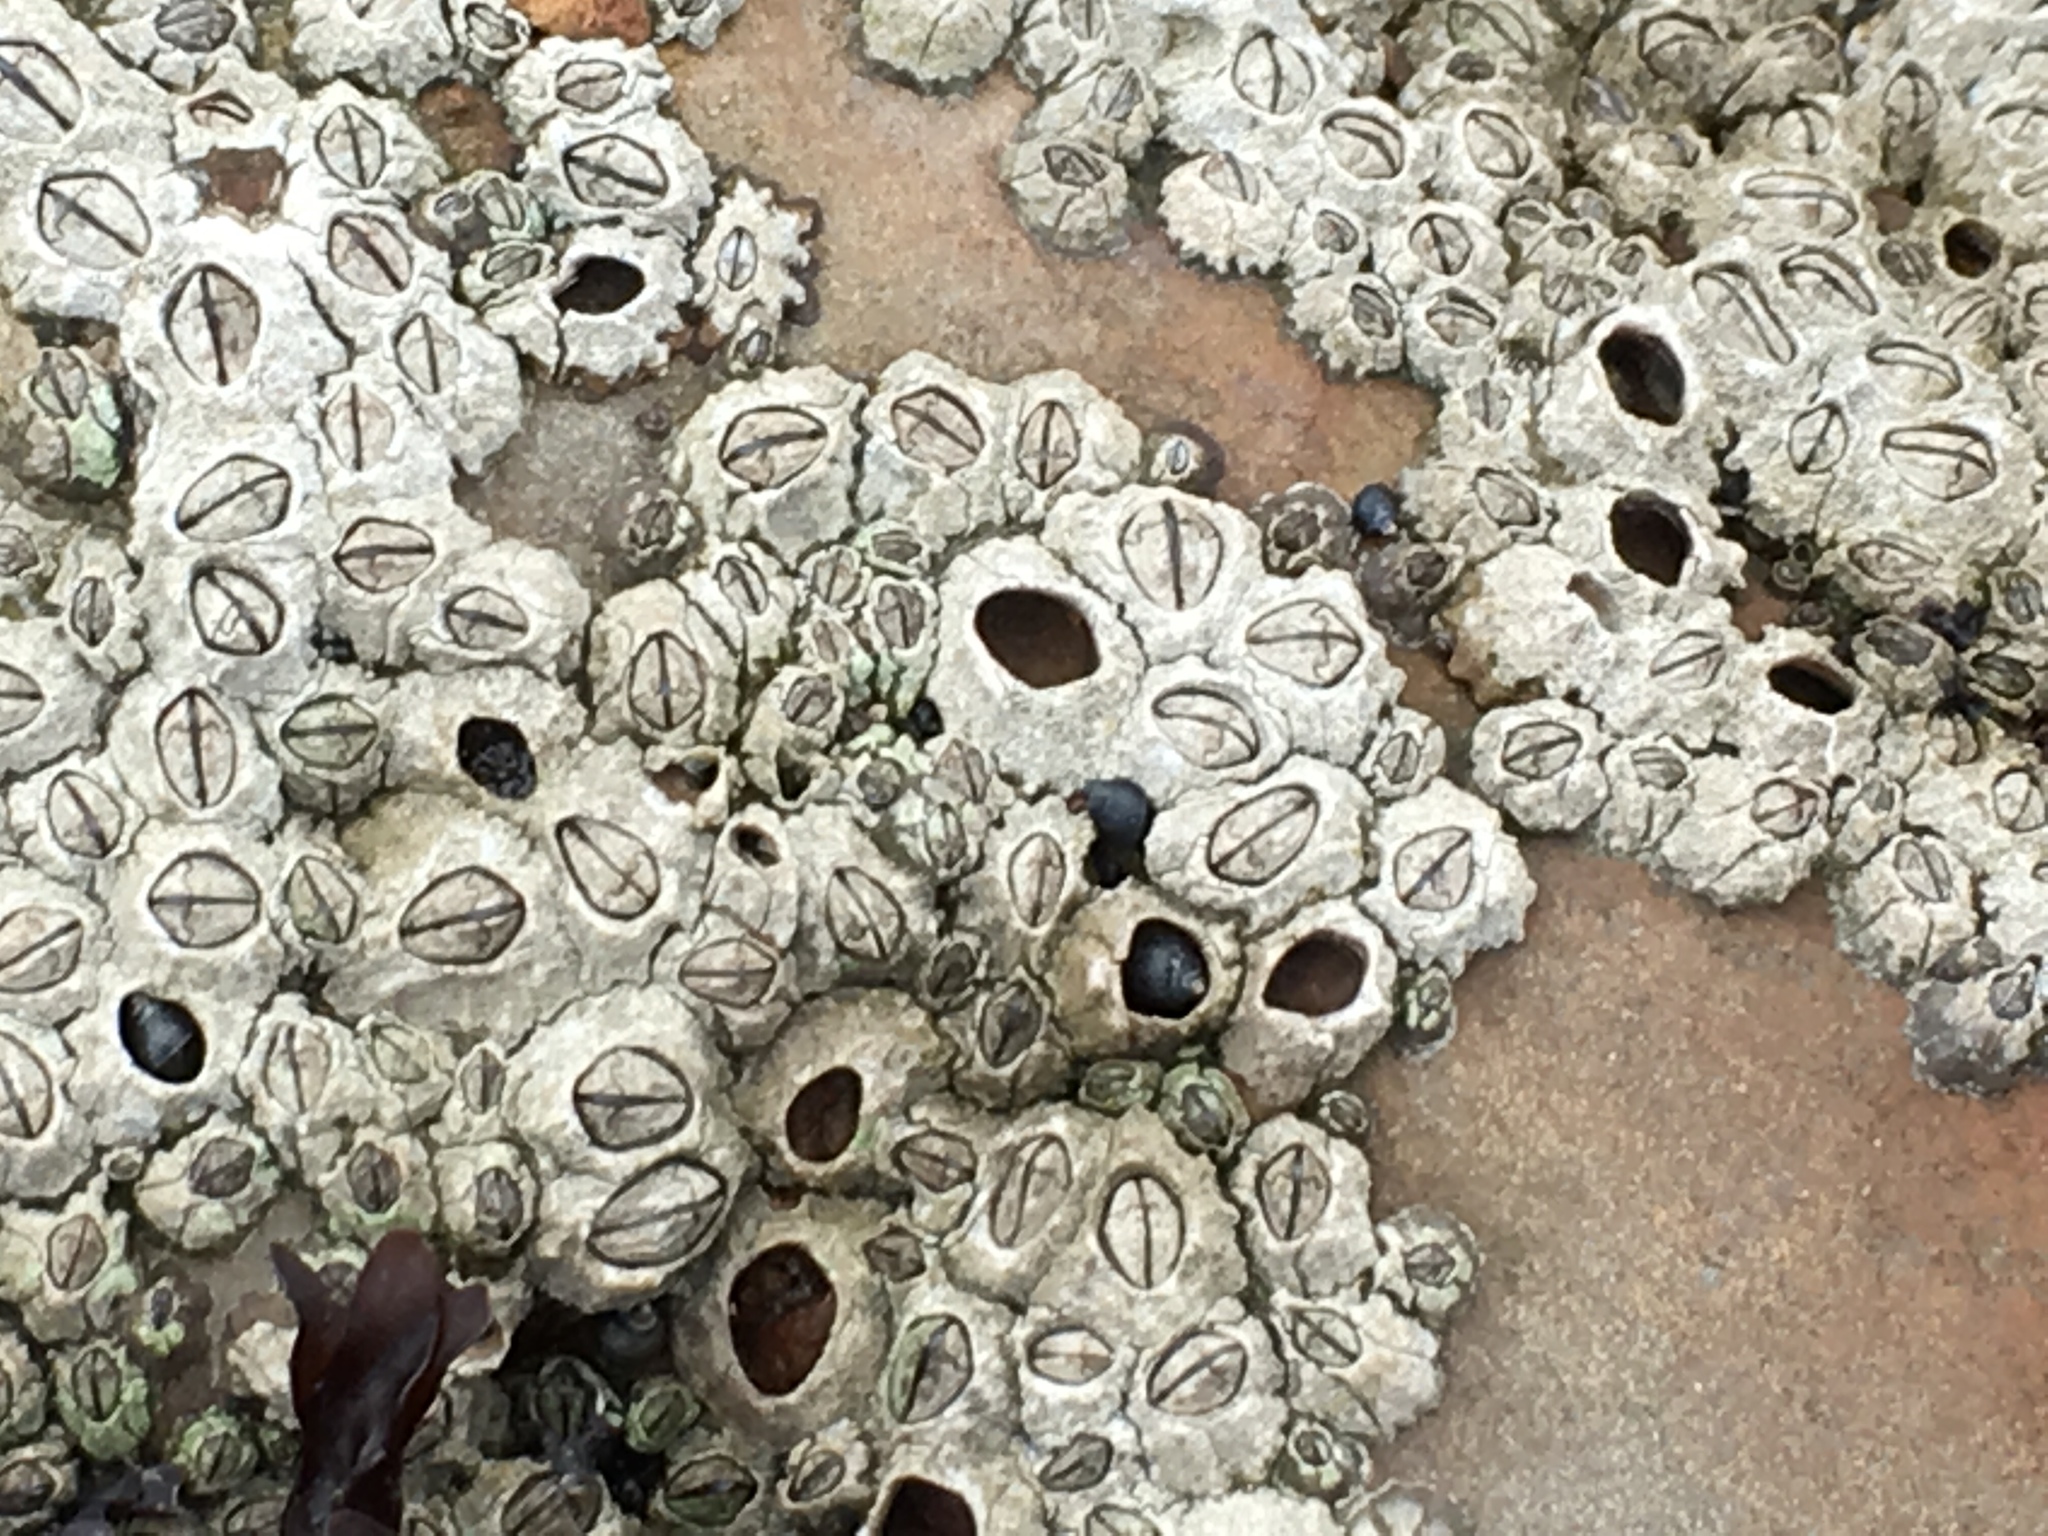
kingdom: Animalia
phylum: Arthropoda
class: Maxillopoda
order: Sessilia
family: Chthamalidae
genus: Chthamalus
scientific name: Chthamalus dalli
